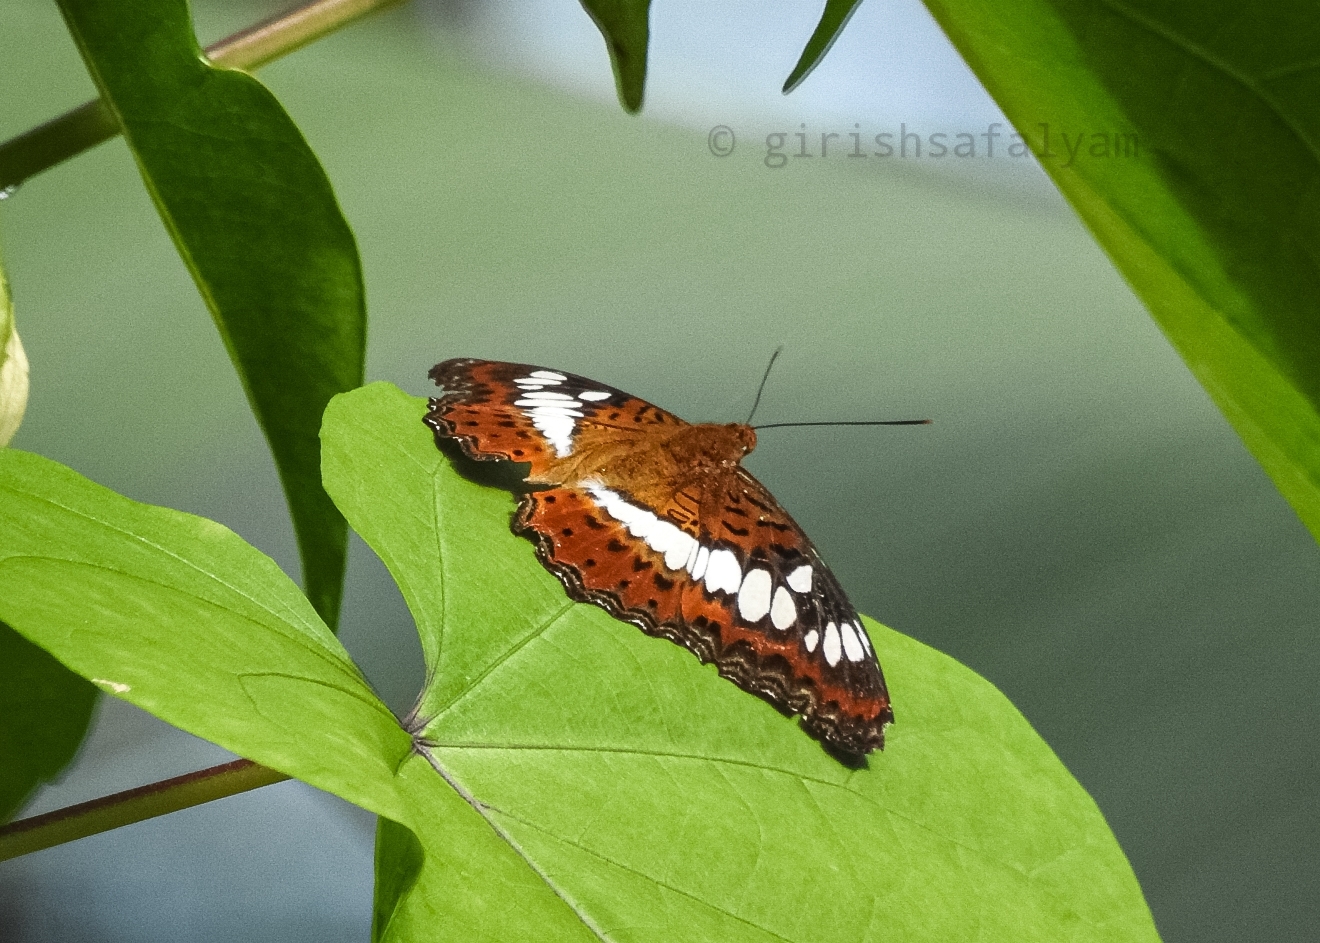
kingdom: Animalia
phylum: Arthropoda
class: Insecta
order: Lepidoptera
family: Nymphalidae
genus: Limenitis
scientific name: Limenitis Moduza procris
